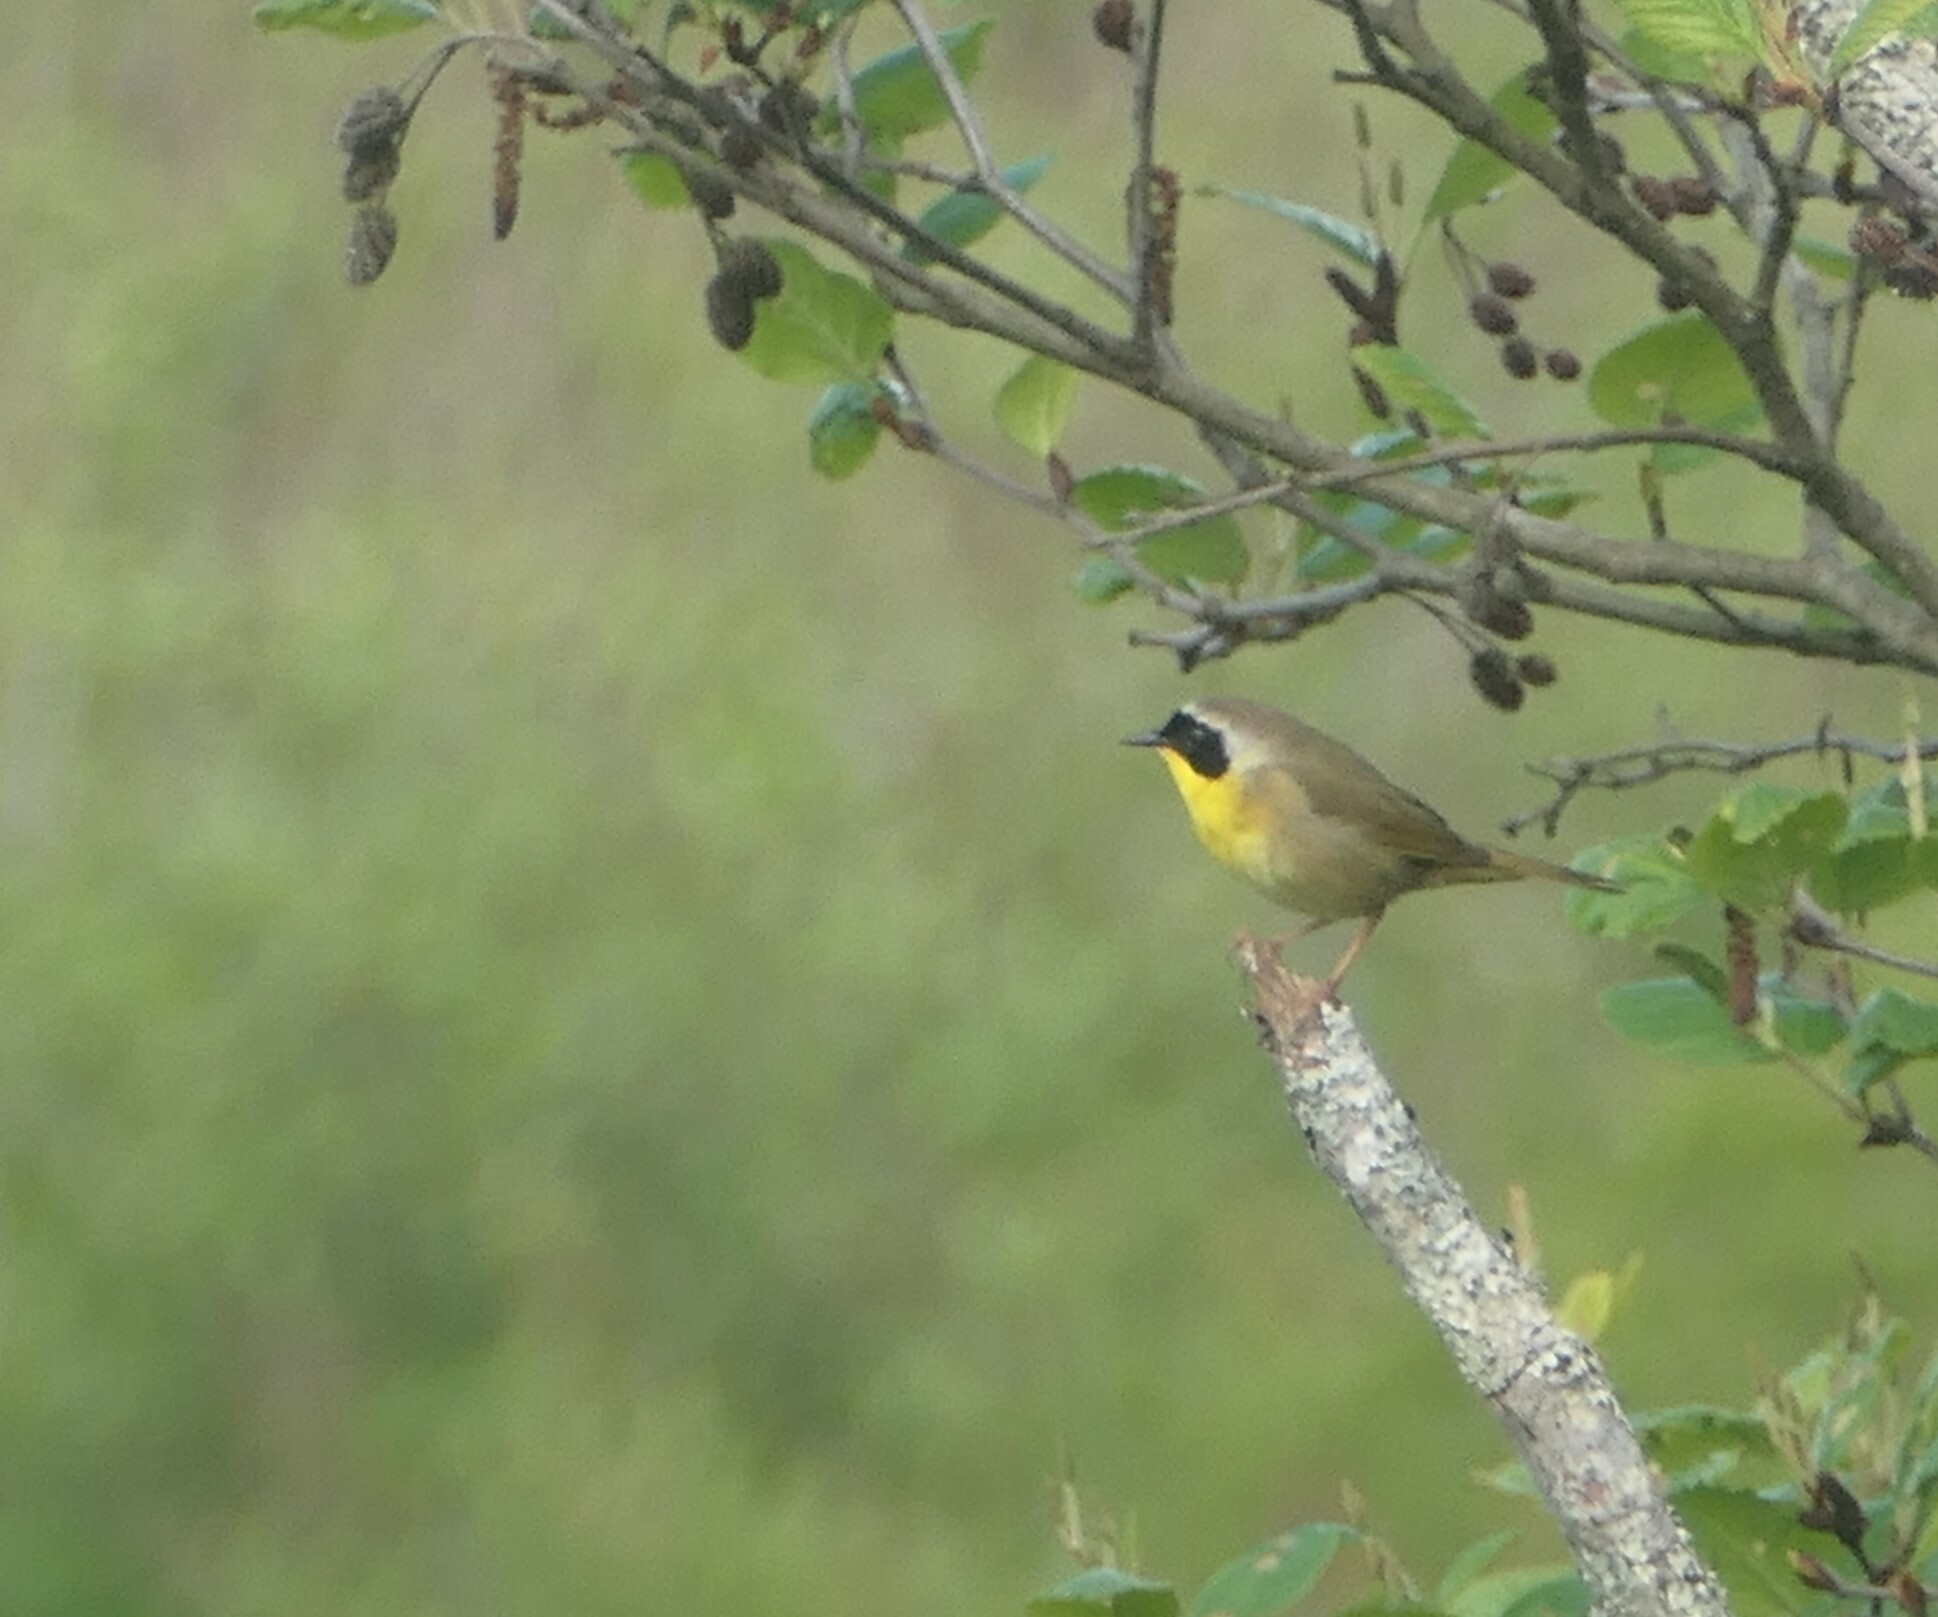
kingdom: Animalia
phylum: Chordata
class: Aves
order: Passeriformes
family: Parulidae
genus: Geothlypis
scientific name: Geothlypis trichas
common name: Common yellowthroat
